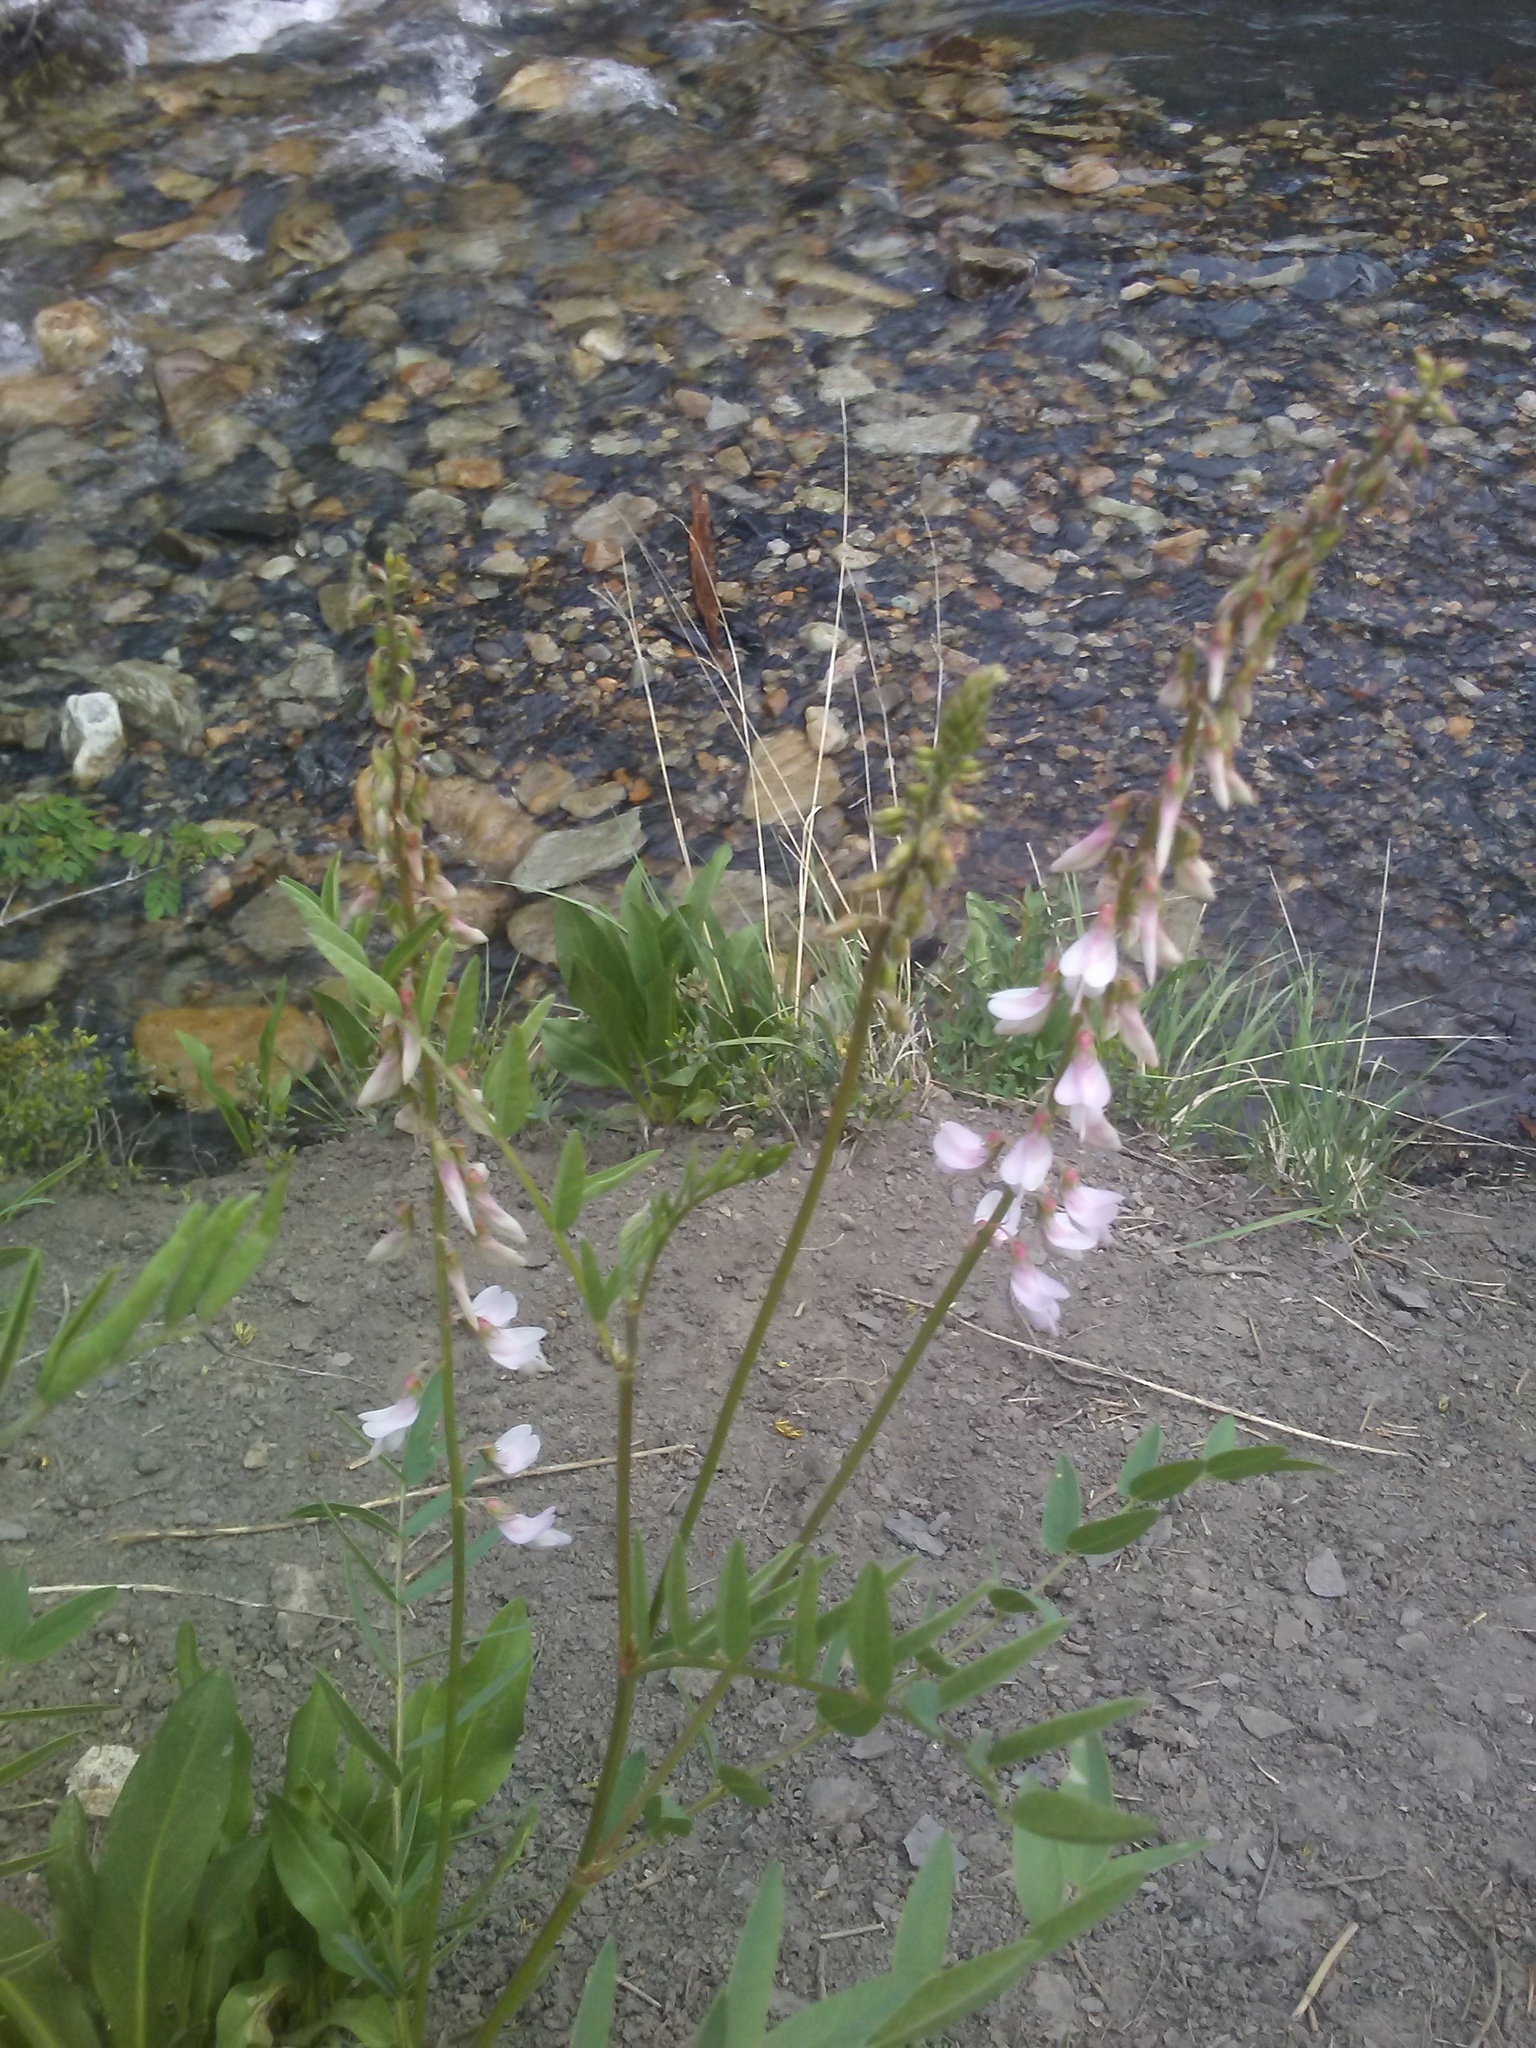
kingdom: Plantae
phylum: Tracheophyta
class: Magnoliopsida
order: Fabales
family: Fabaceae
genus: Hedysarum
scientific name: Hedysarum occidentale
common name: Western hedysarum
